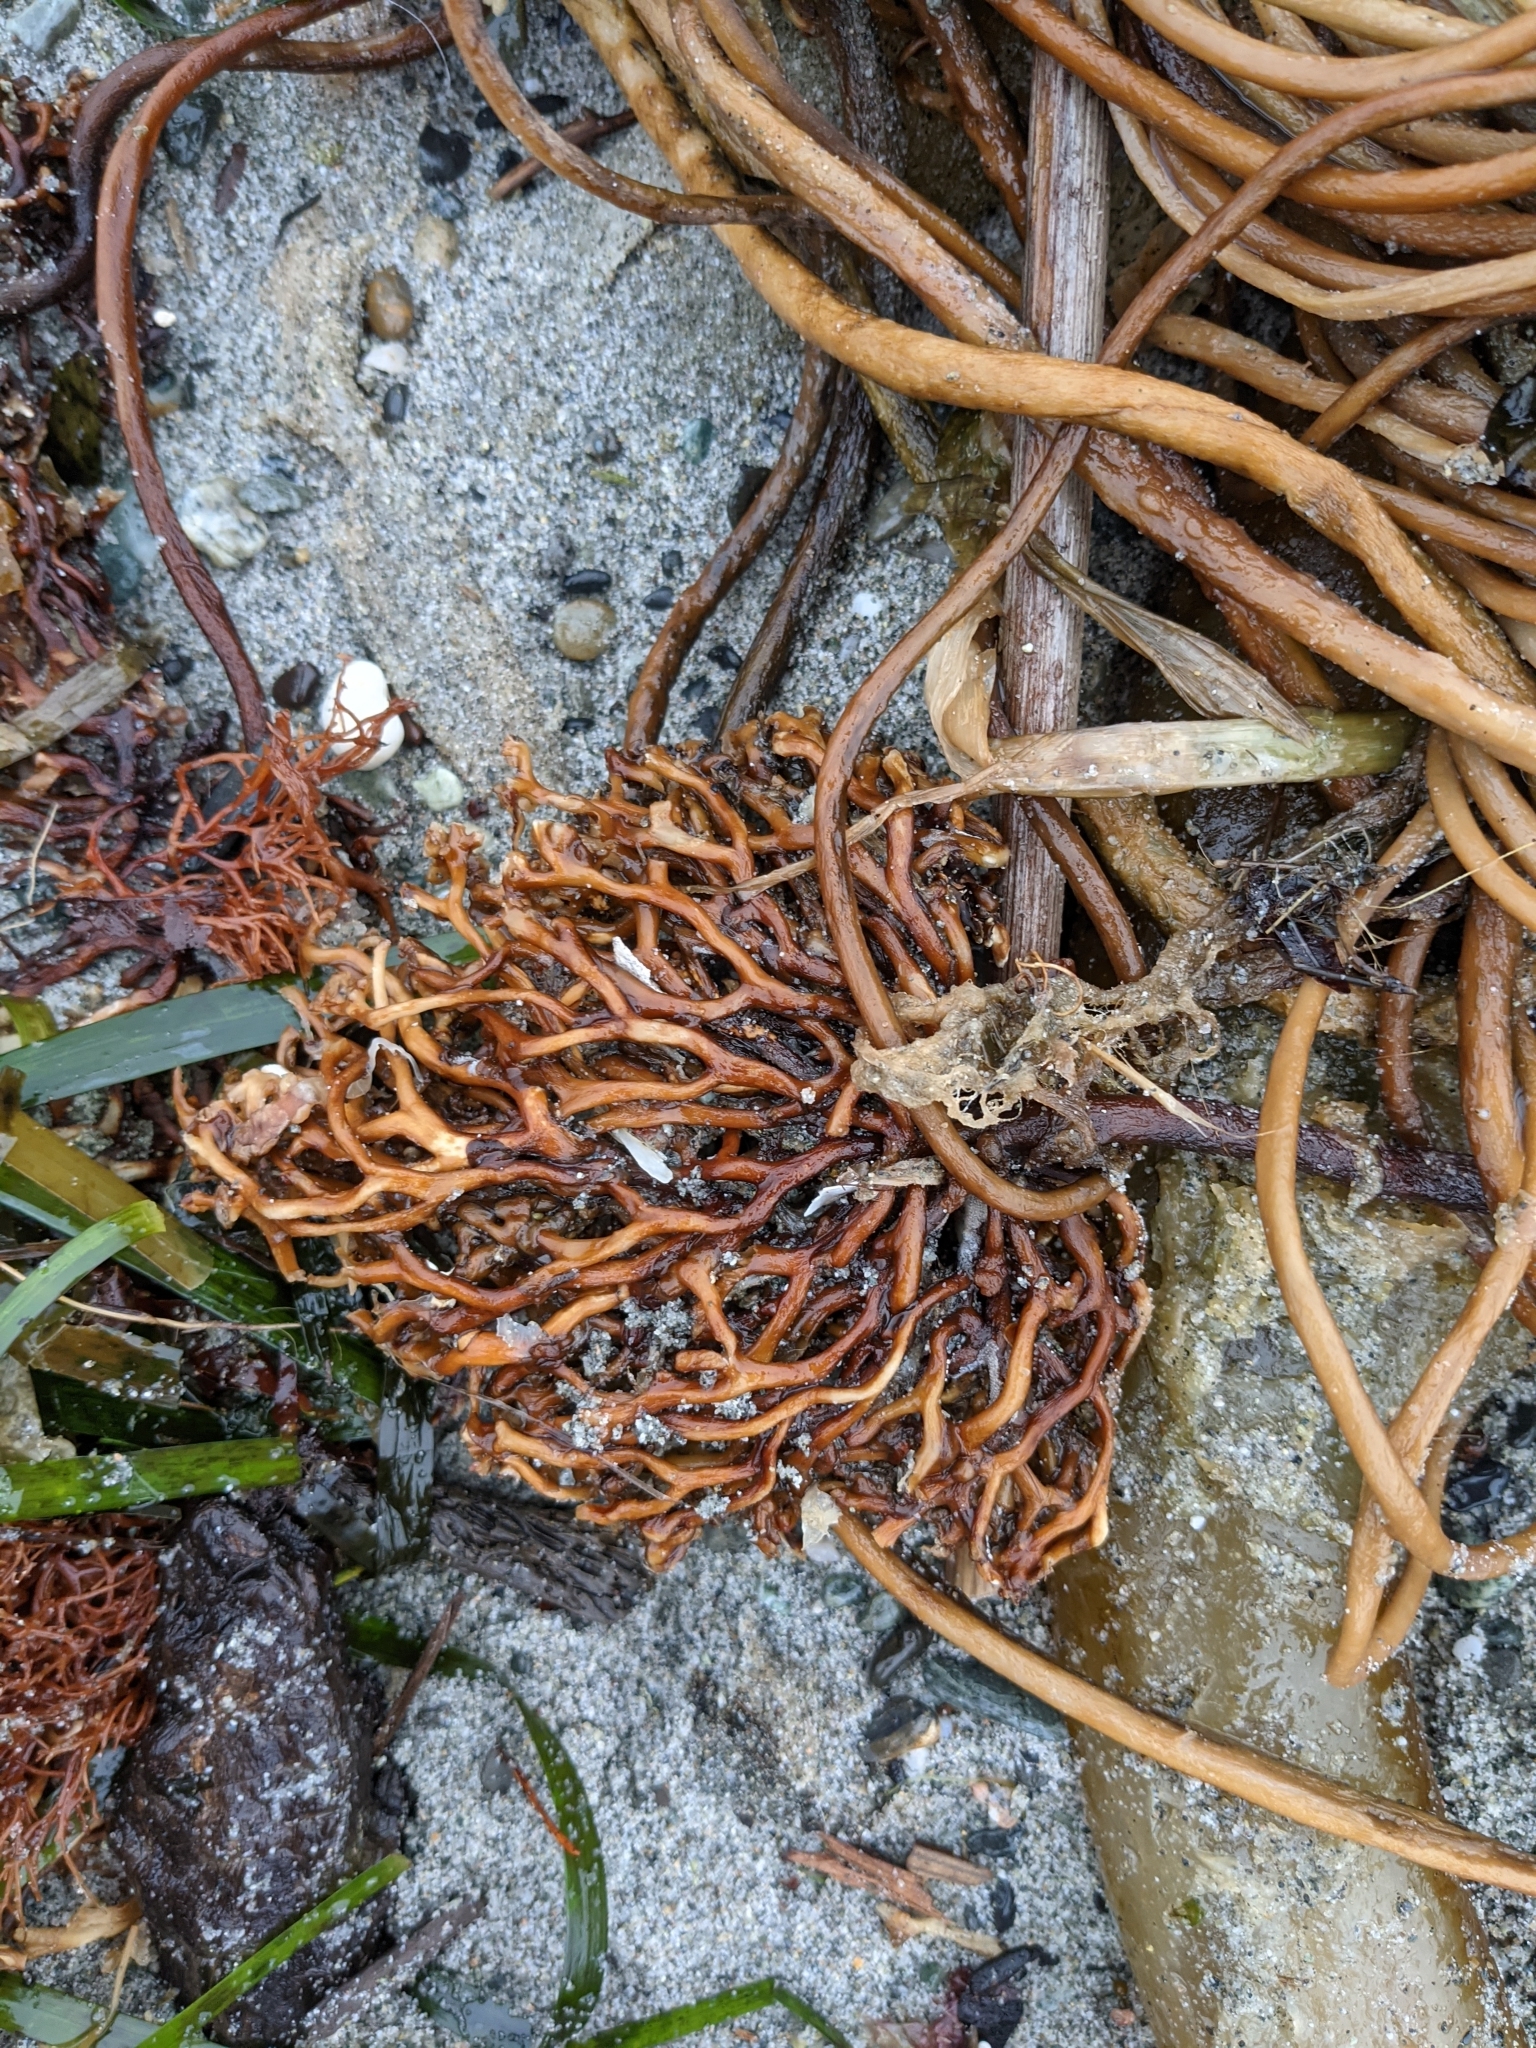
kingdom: Chromista
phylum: Ochrophyta
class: Phaeophyceae
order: Laminariales
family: Laminariaceae
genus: Nereocystis
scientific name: Nereocystis luetkeana
